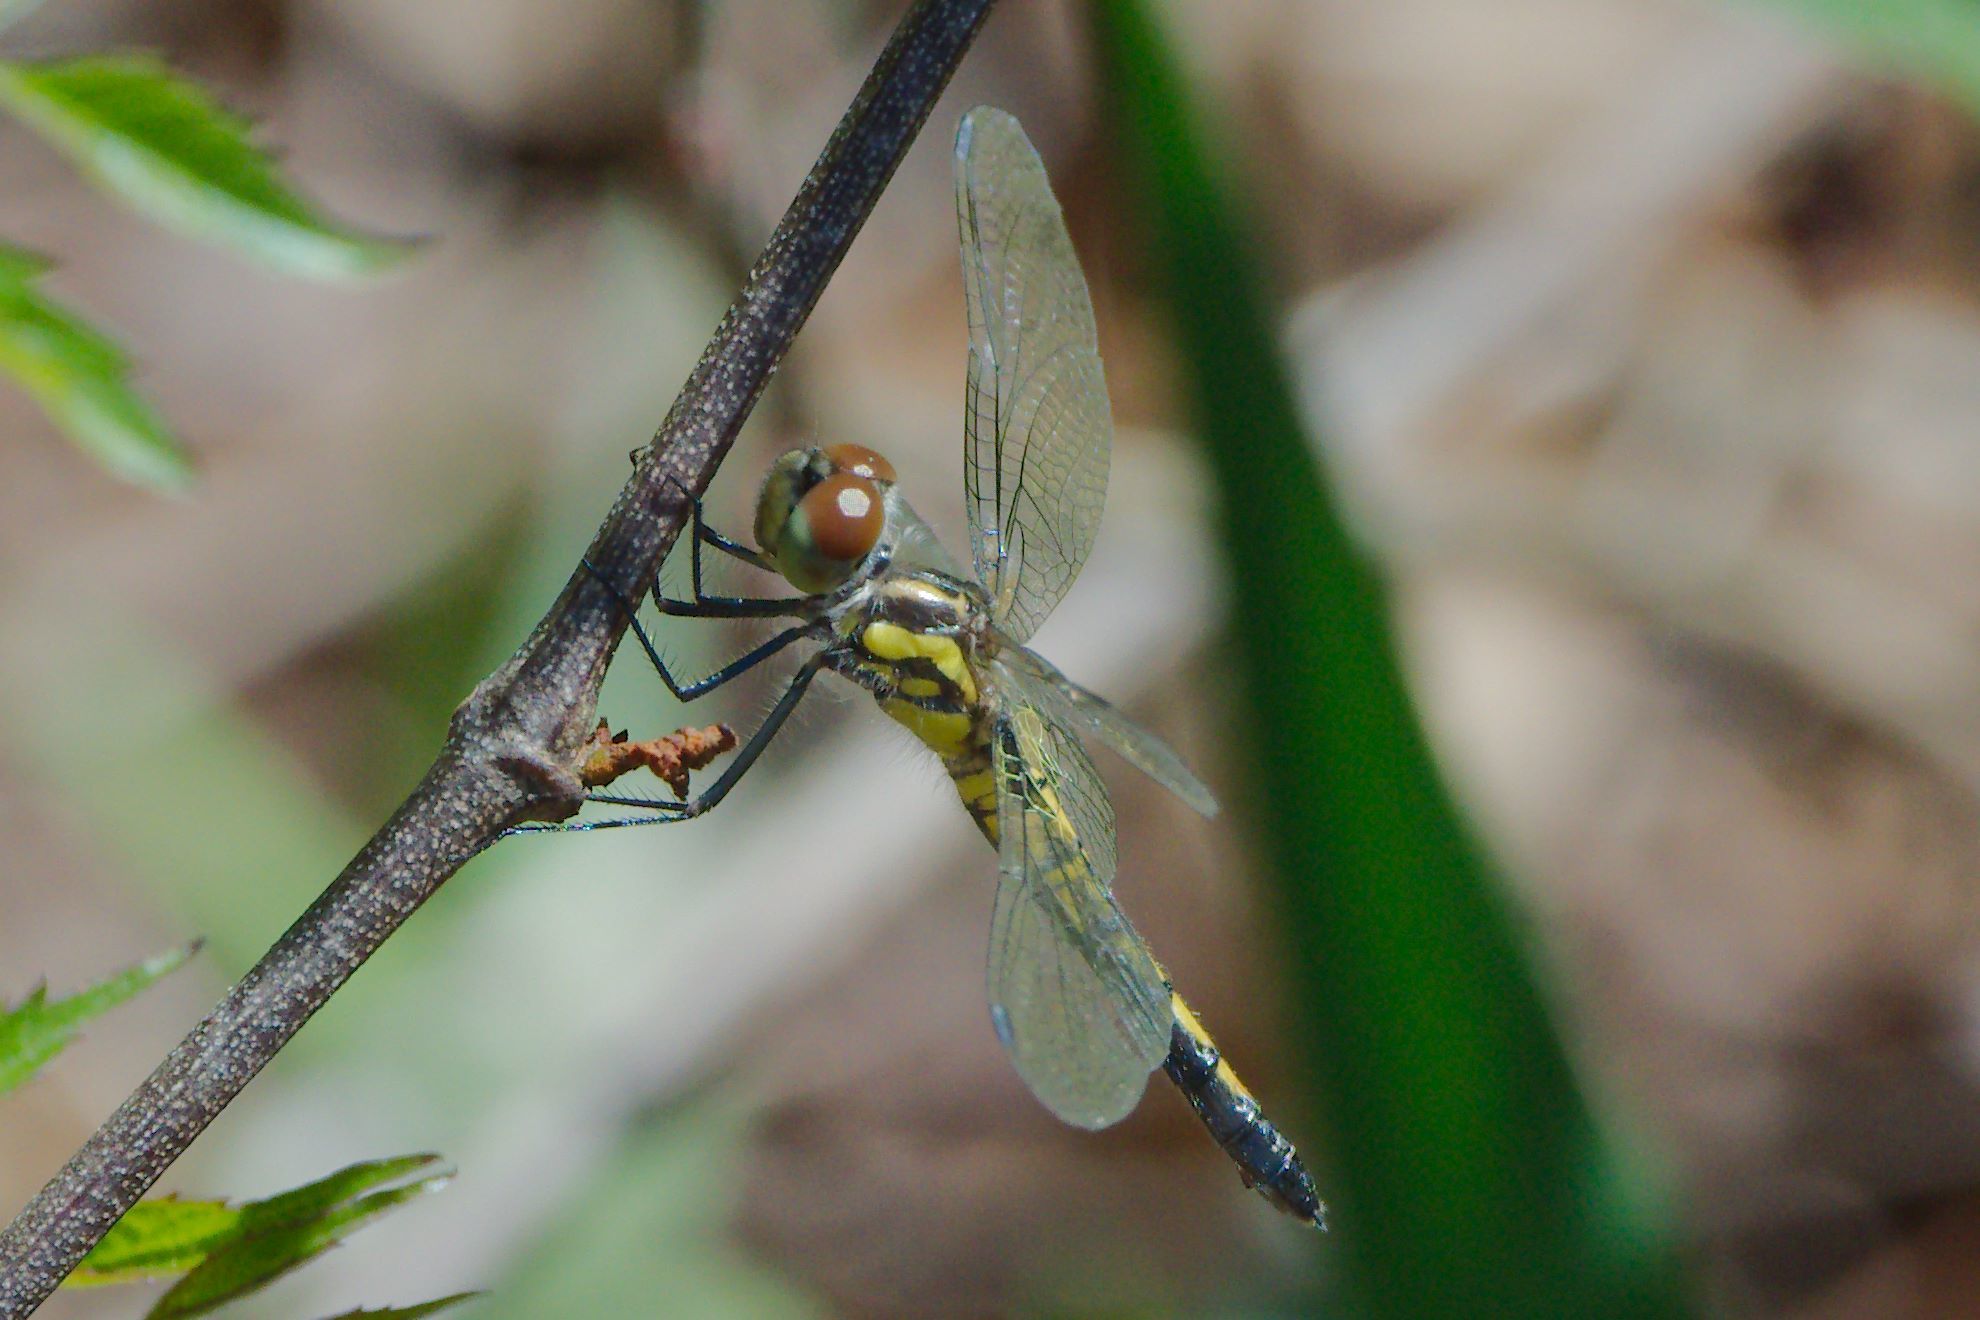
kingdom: Animalia
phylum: Arthropoda
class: Insecta
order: Odonata
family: Libellulidae
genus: Celithemis
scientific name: Celithemis ornata
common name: Ornate pennant
